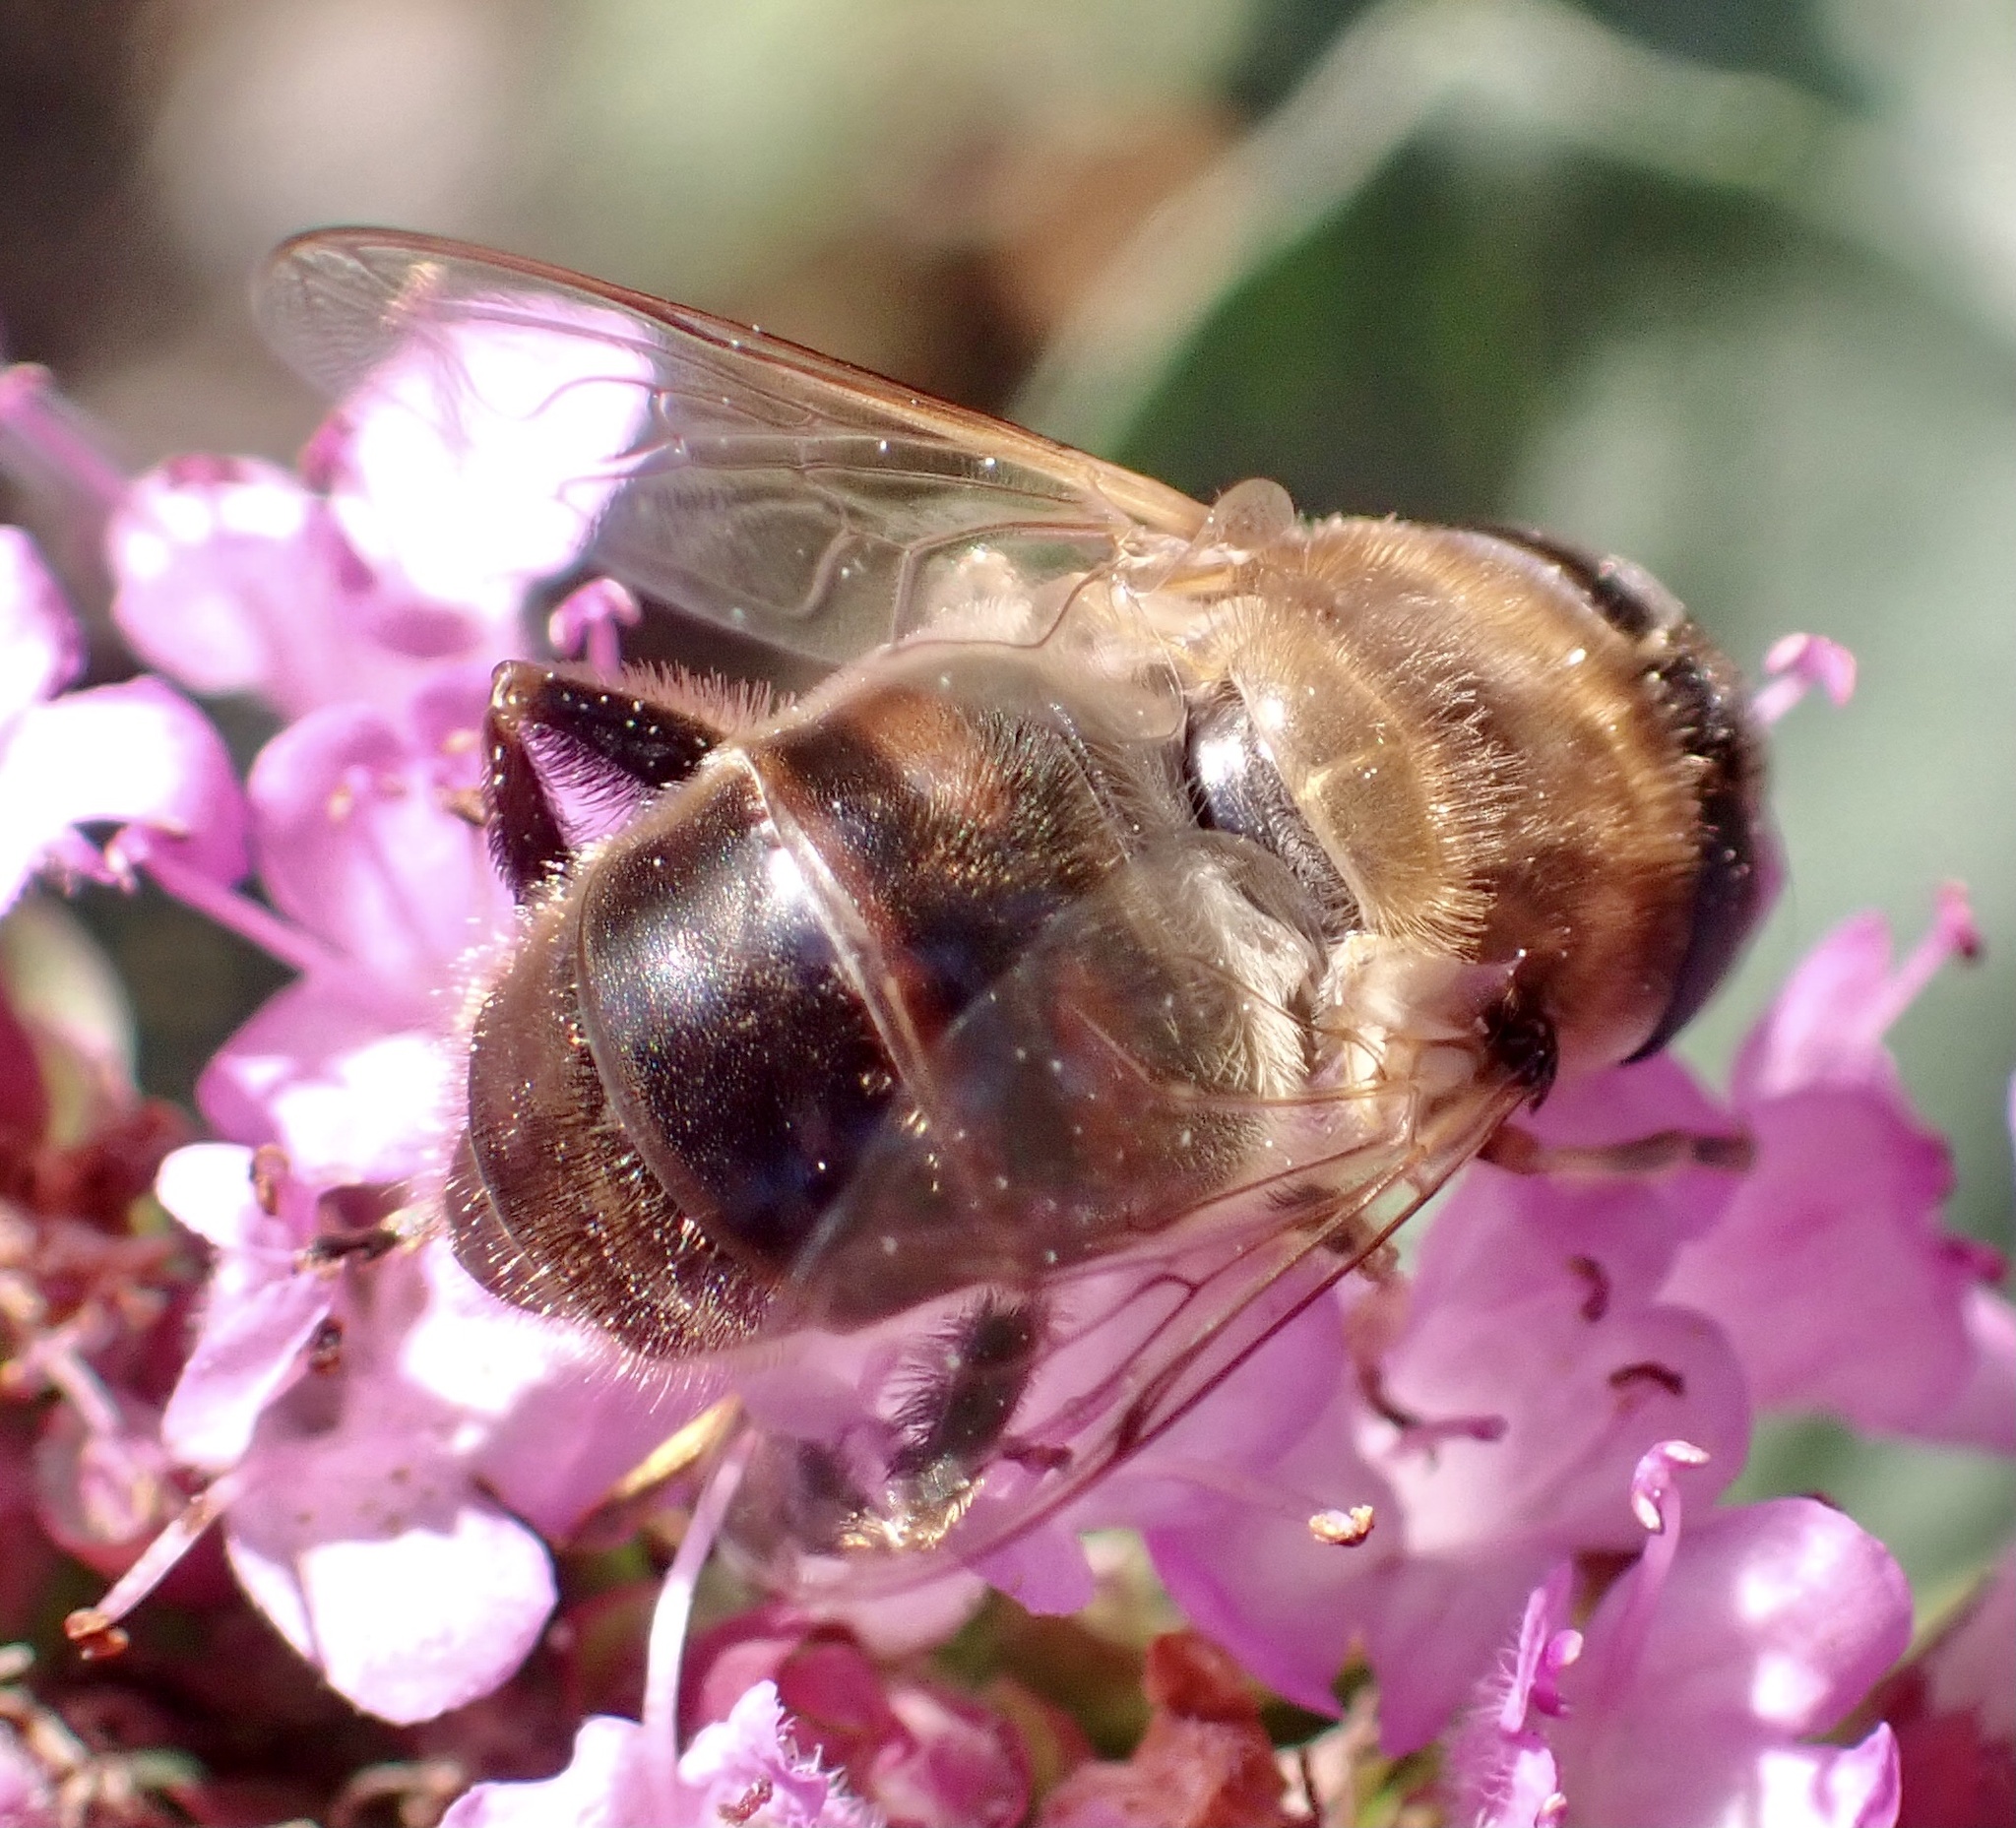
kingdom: Animalia
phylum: Arthropoda
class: Insecta
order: Diptera
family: Syrphidae
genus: Eristalis
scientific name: Eristalis tenax
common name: Drone fly
